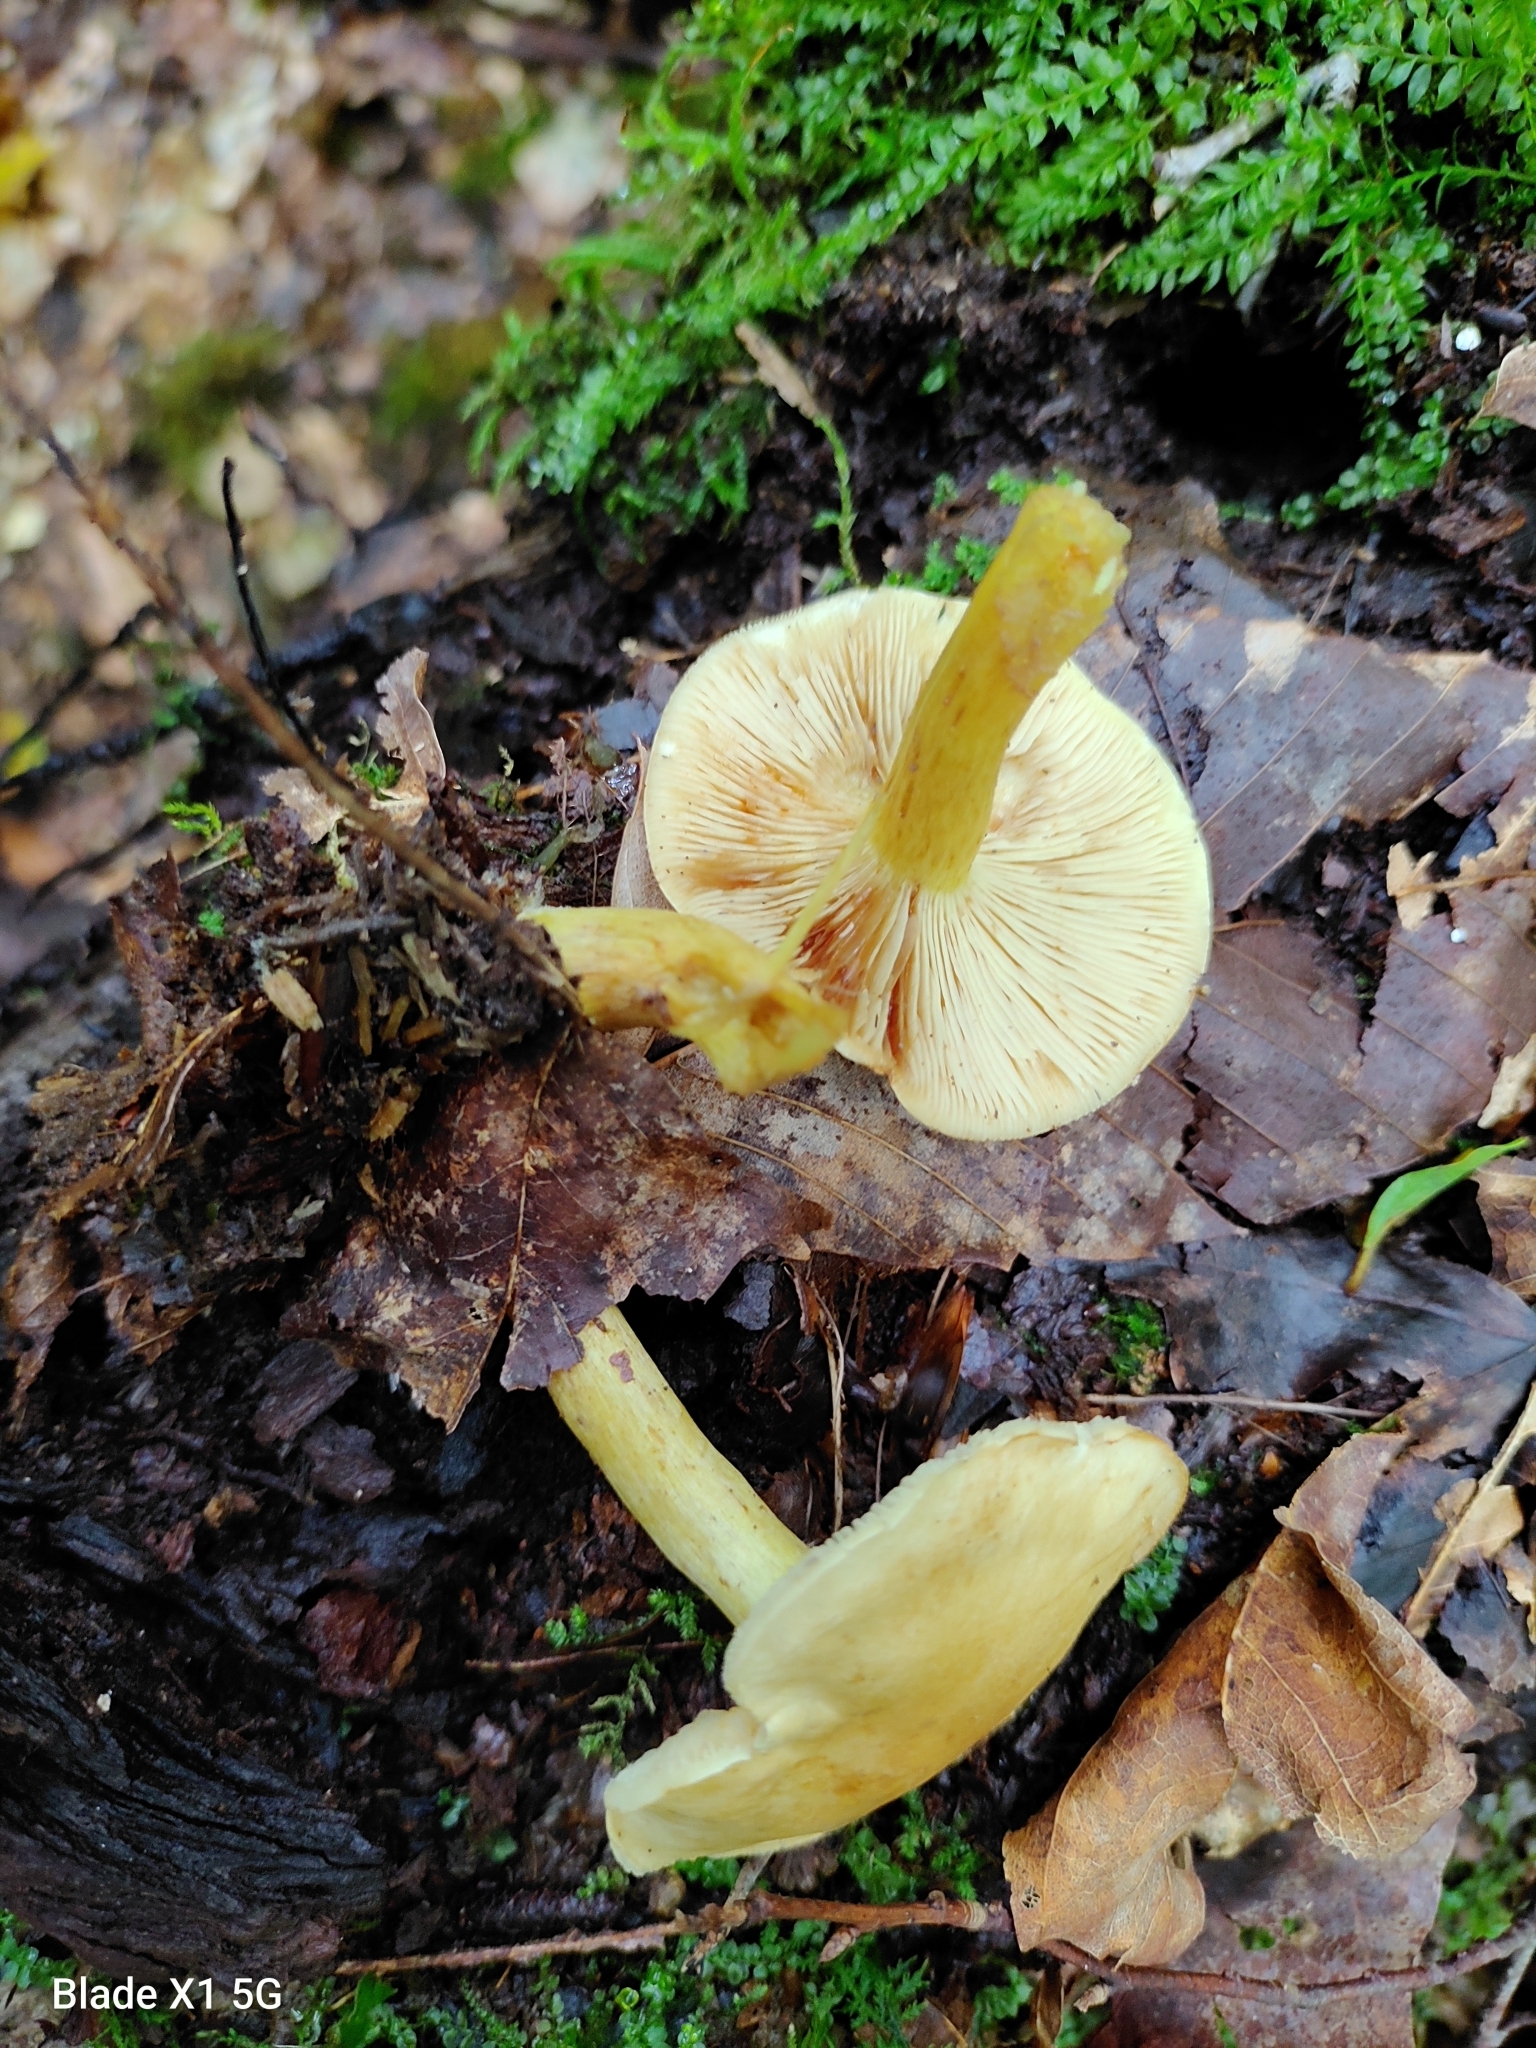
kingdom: Fungi
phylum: Basidiomycota
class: Agaricomycetes
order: Agaricales
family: Tricholomataceae
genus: Tricholoma
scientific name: Tricholoma sulphureum
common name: Stinky knight
